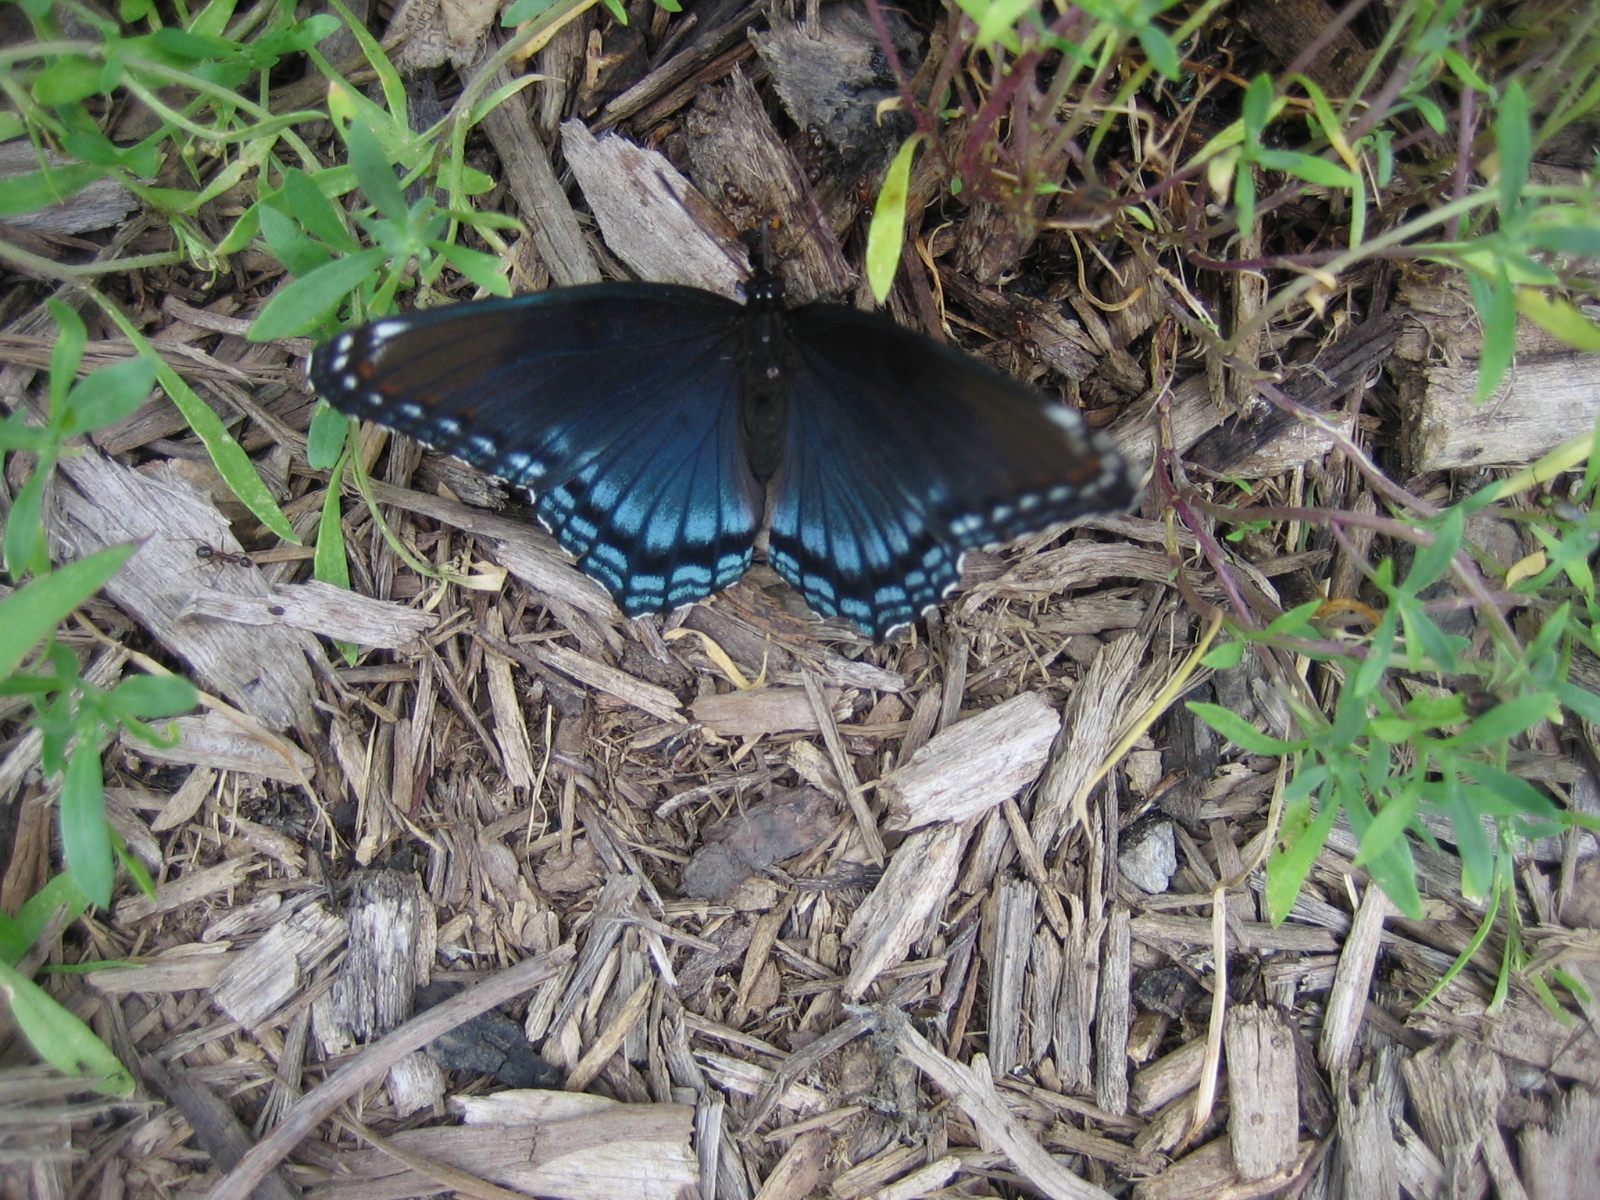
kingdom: Animalia
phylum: Arthropoda
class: Insecta
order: Lepidoptera
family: Nymphalidae
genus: Limenitis
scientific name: Limenitis astyanax
